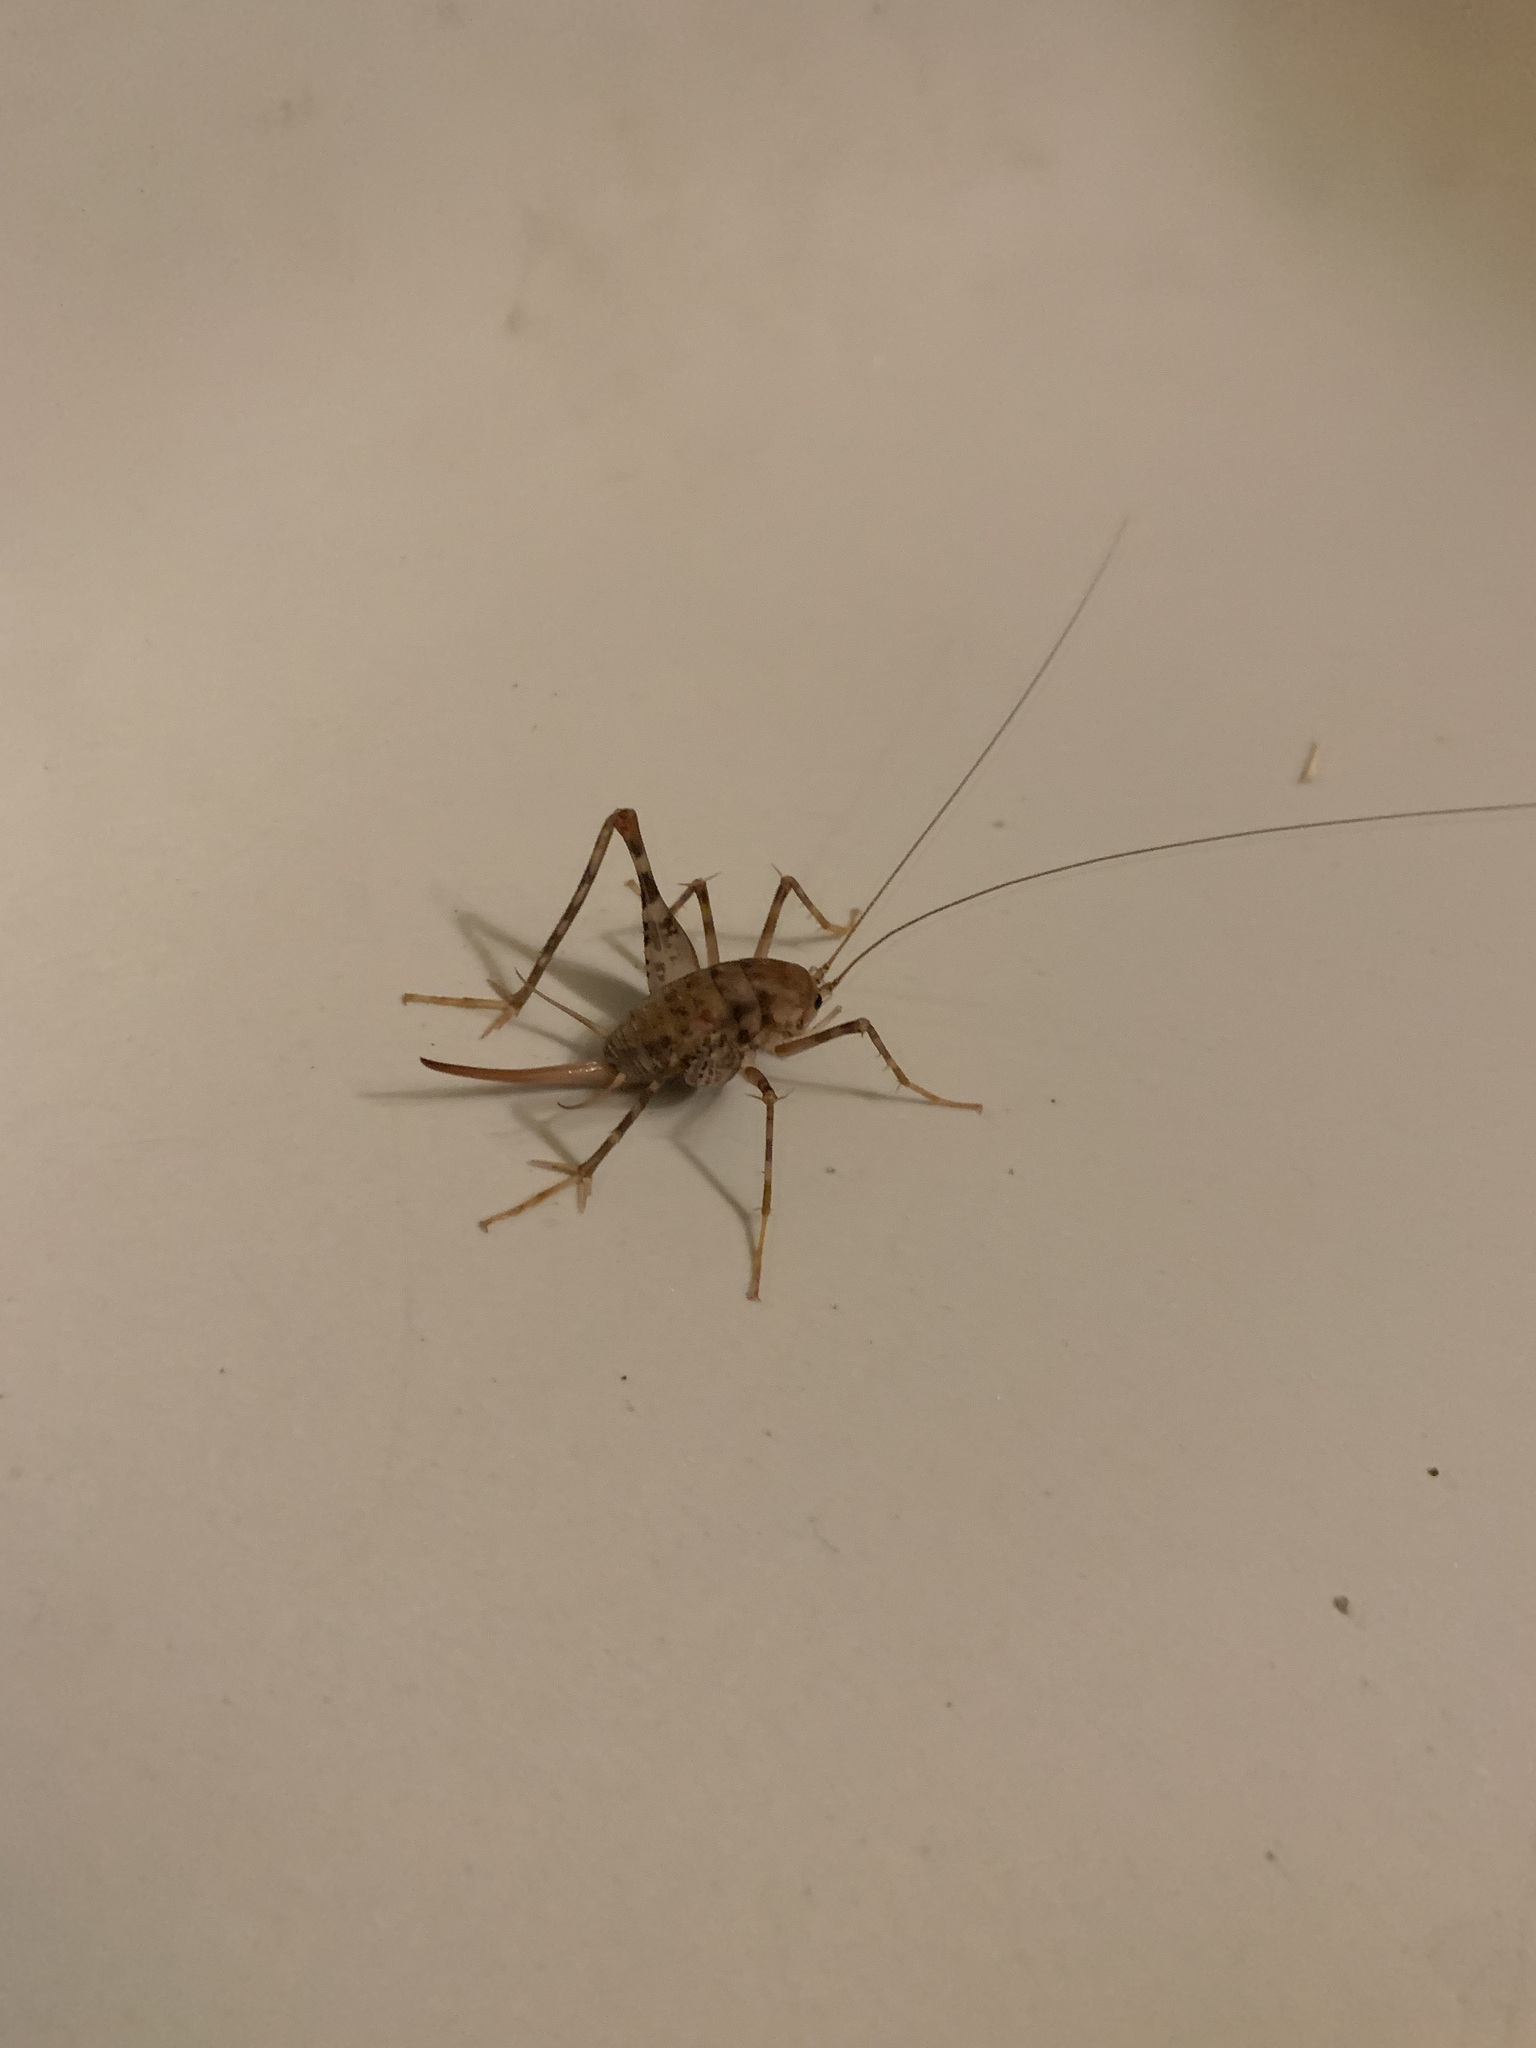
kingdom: Animalia
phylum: Arthropoda
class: Insecta
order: Orthoptera
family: Rhaphidophoridae
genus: Tachycines
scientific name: Tachycines asynamorus
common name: Greenhouse camel cricket
